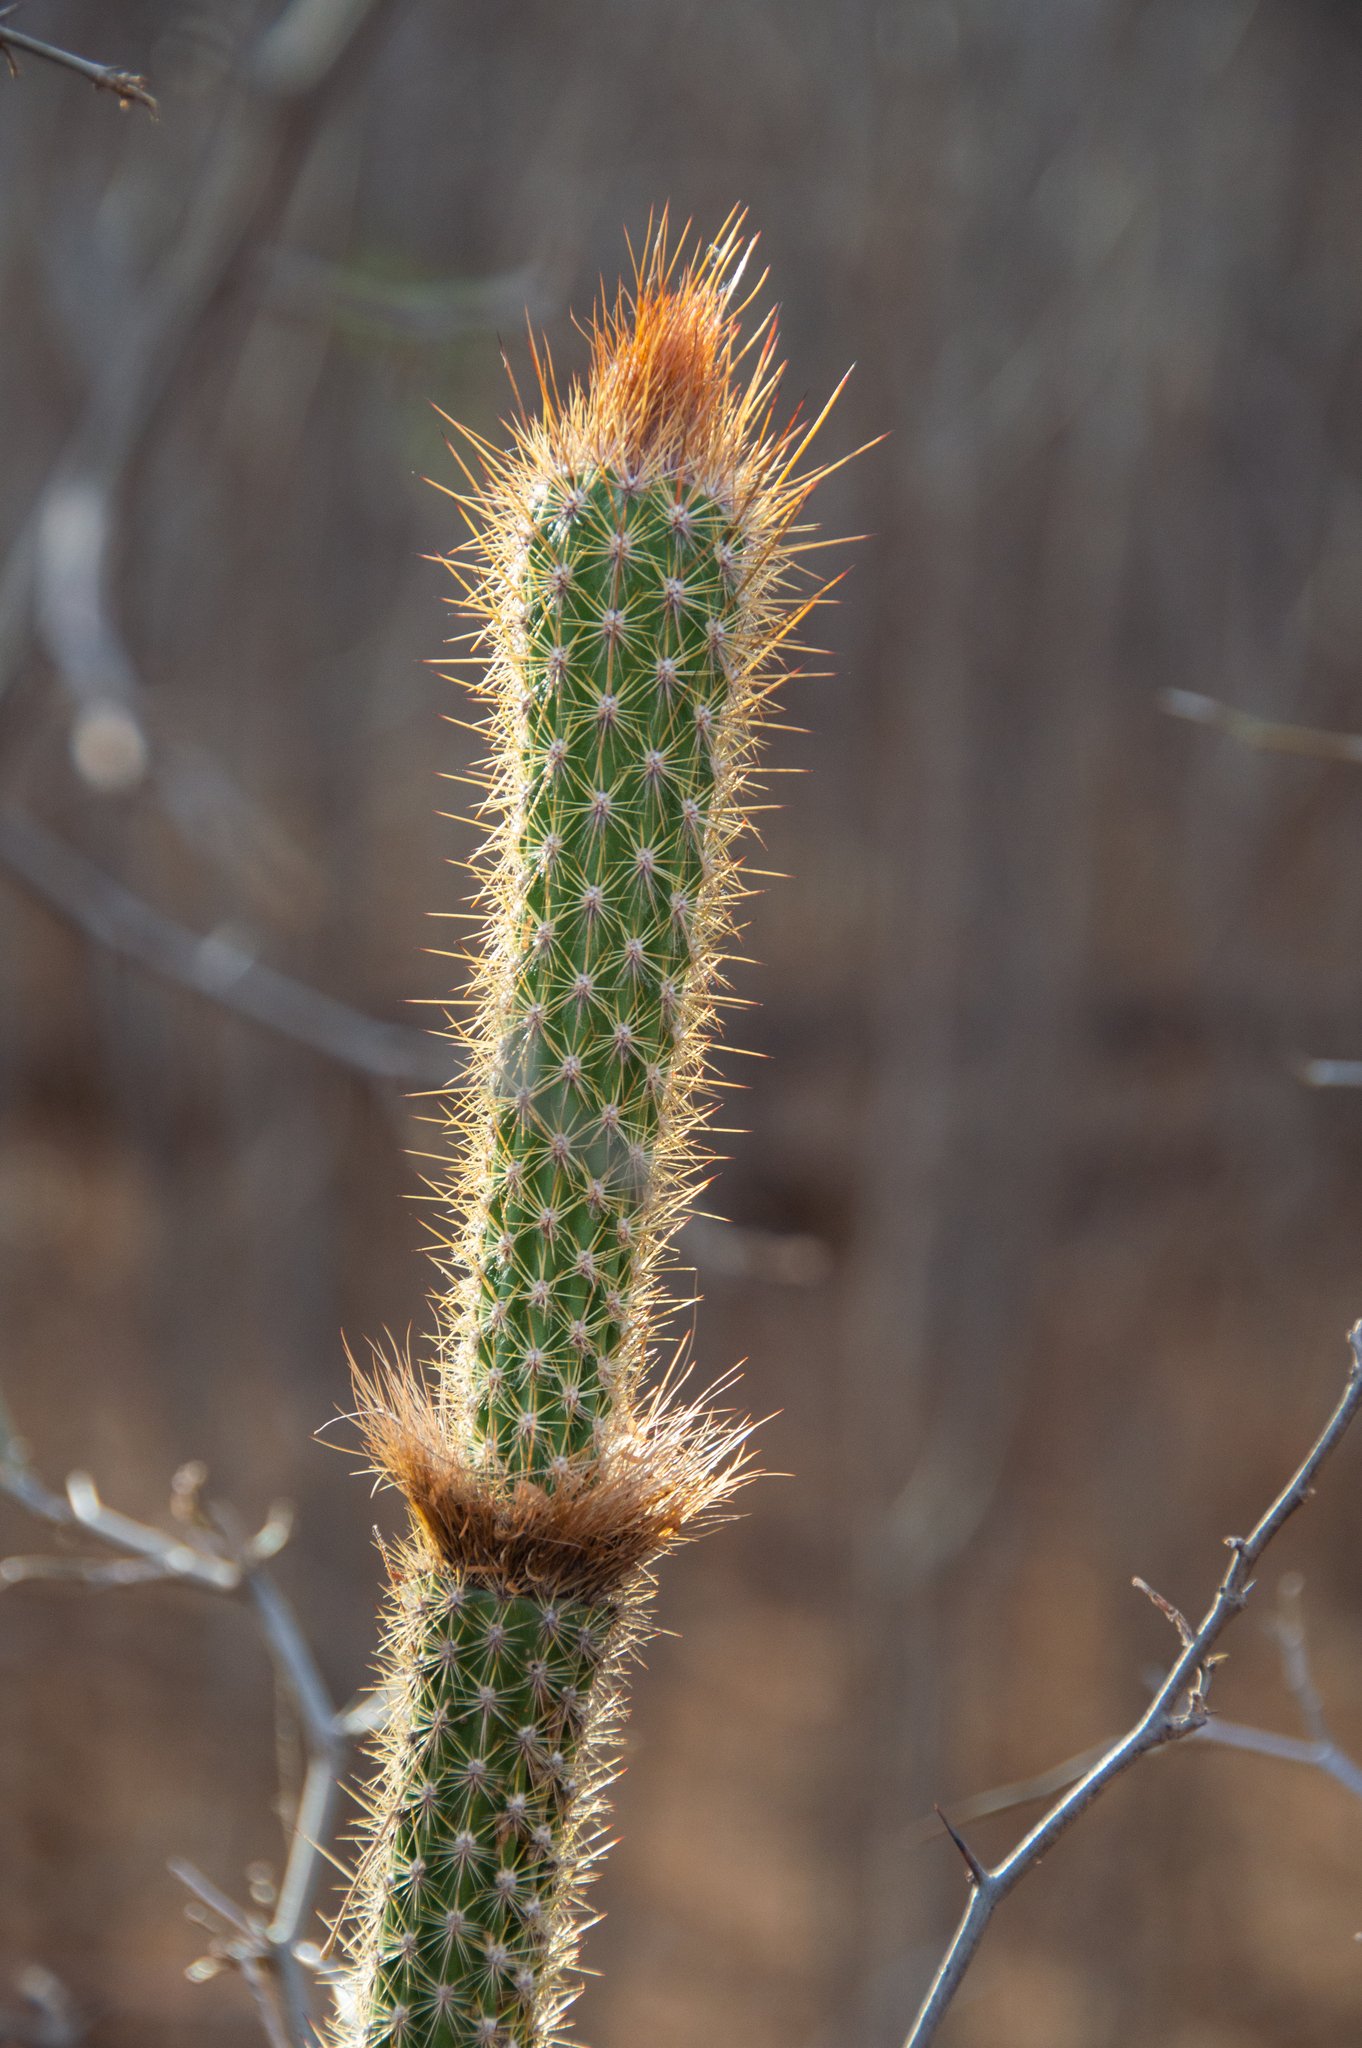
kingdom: Plantae
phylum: Tracheophyta
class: Magnoliopsida
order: Caryophyllales
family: Cactaceae
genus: Arrojadoa
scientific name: Arrojadoa rhodantha
